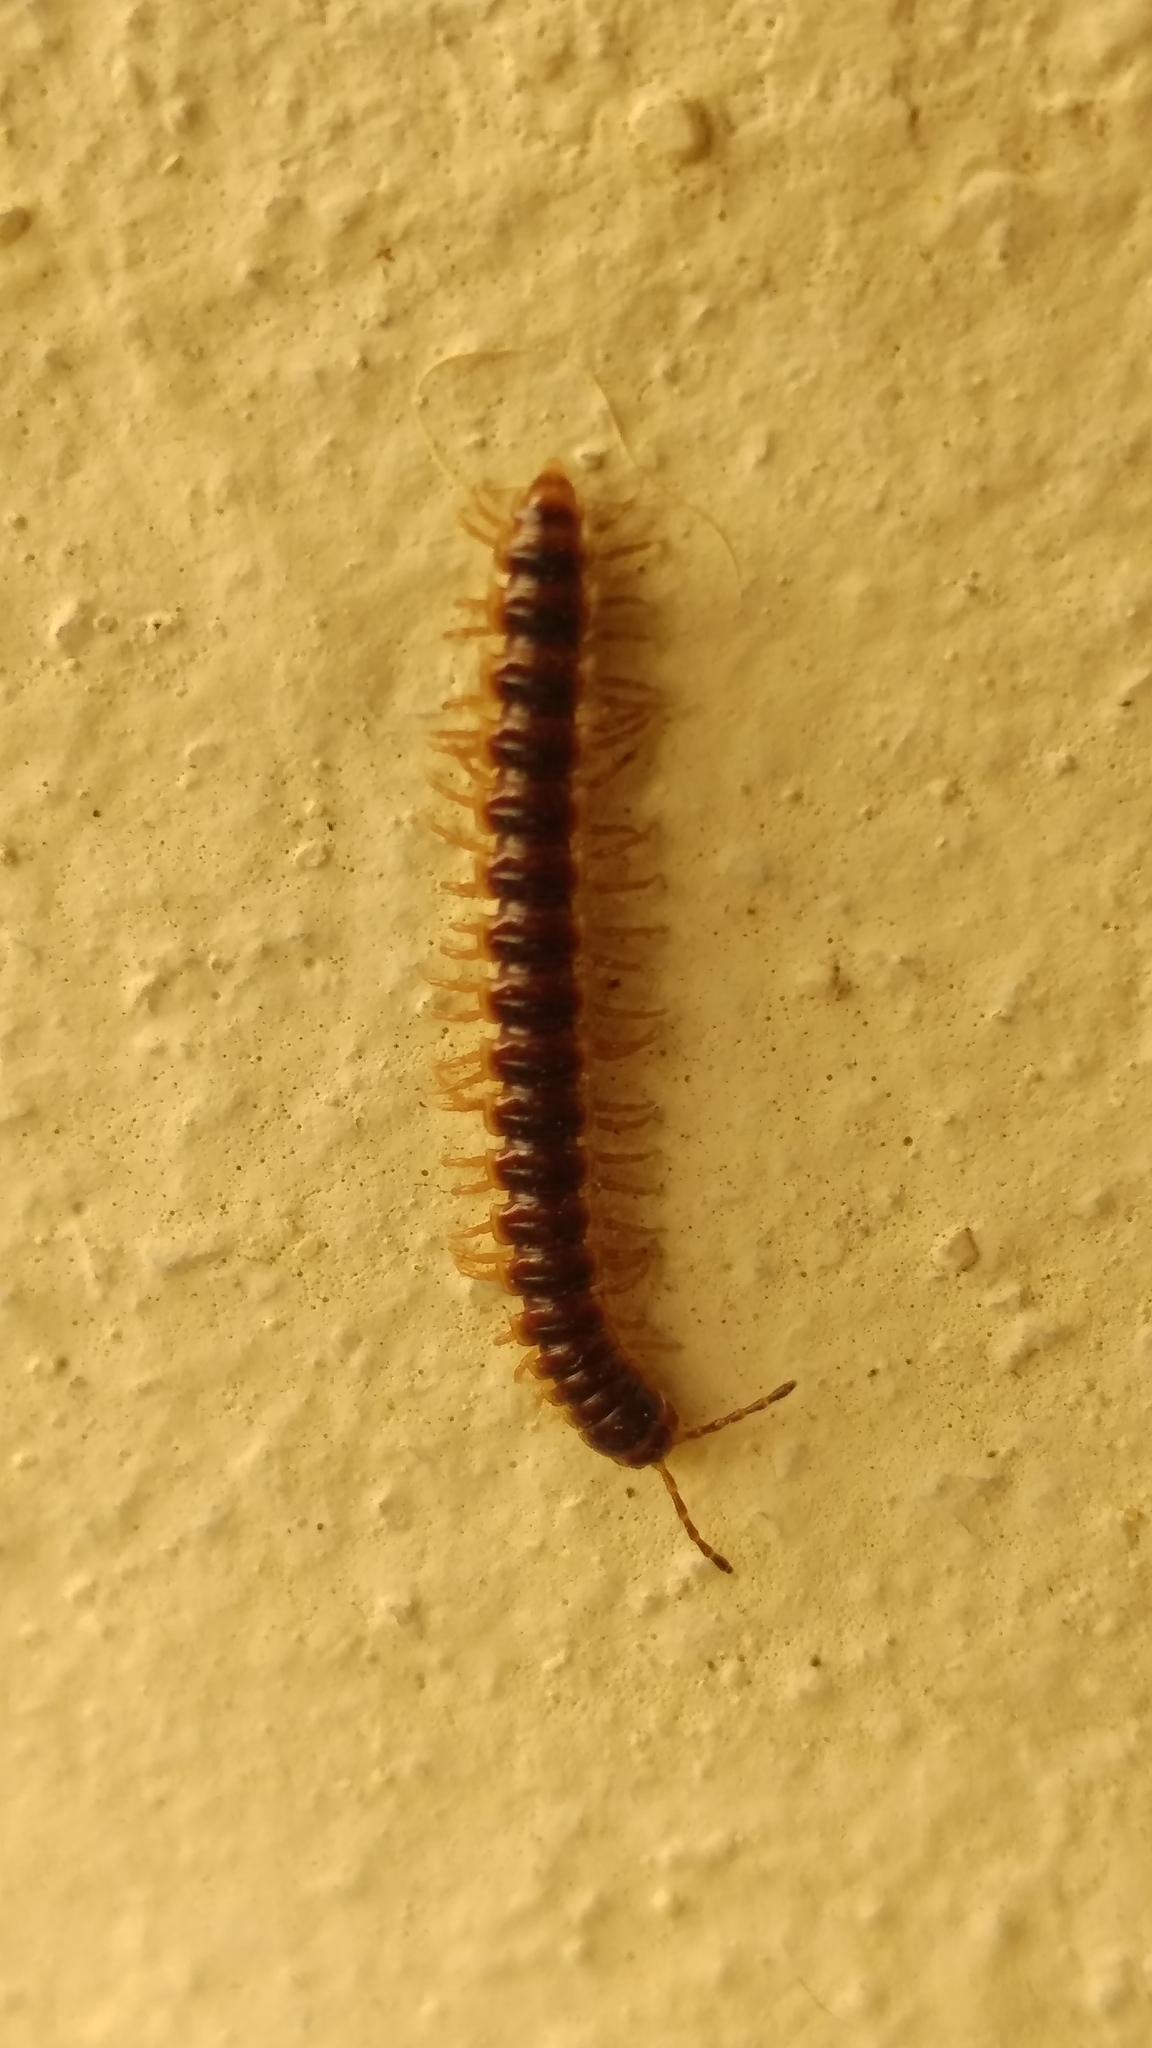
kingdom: Animalia
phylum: Arthropoda
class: Diplopoda
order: Polydesmida
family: Paradoxosomatidae
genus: Oxidus
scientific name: Oxidus gracilis
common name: Greenhouse millipede
